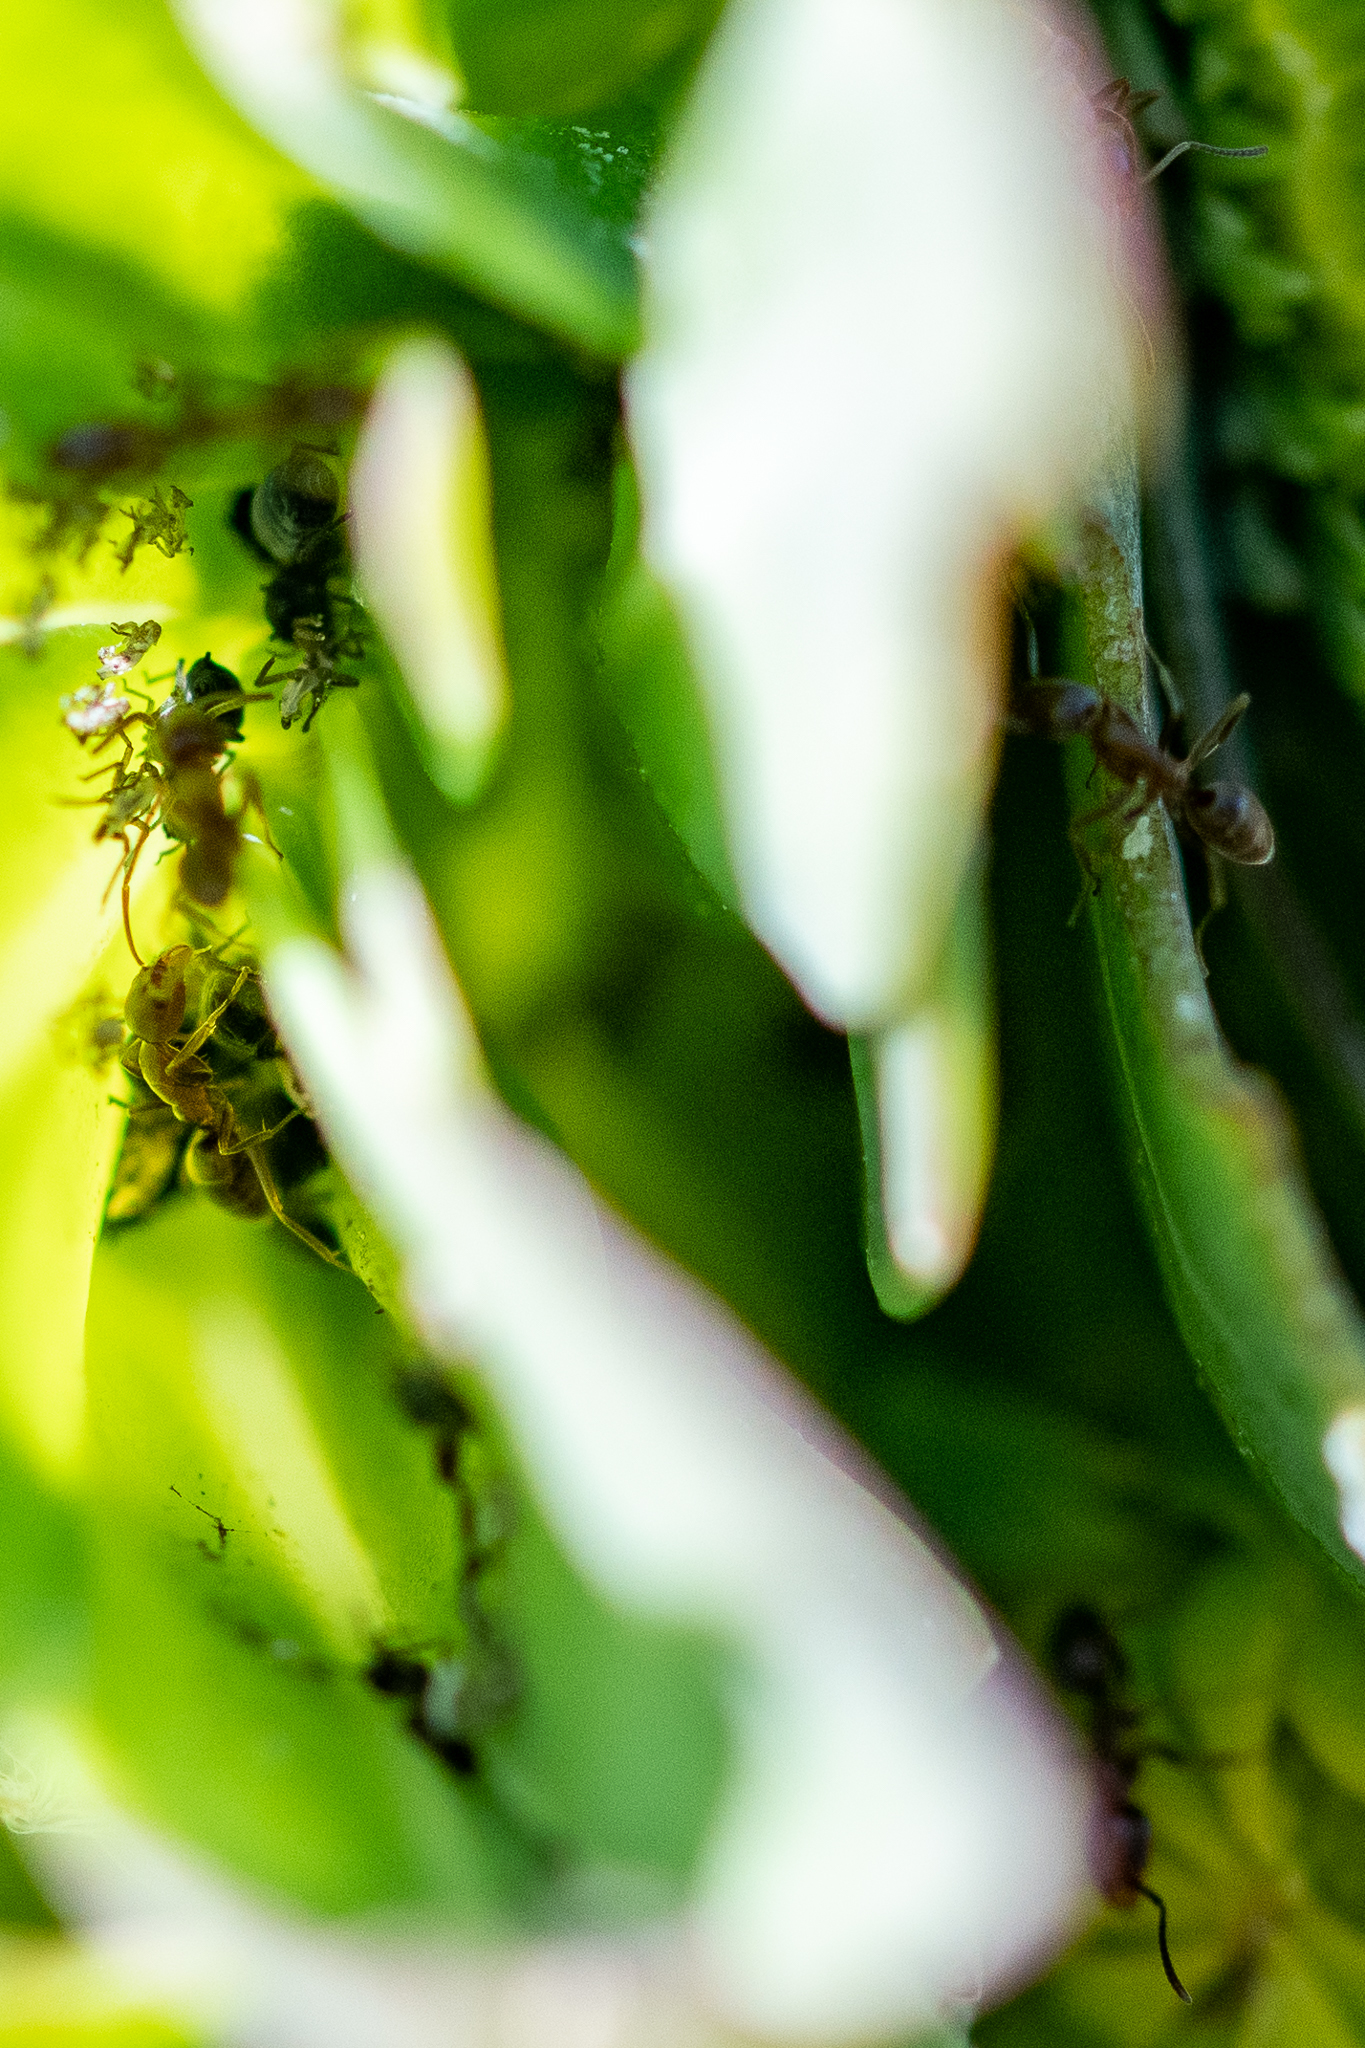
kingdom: Animalia
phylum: Arthropoda
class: Insecta
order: Hymenoptera
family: Formicidae
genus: Linepithema
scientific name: Linepithema humile
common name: Argentine ant
